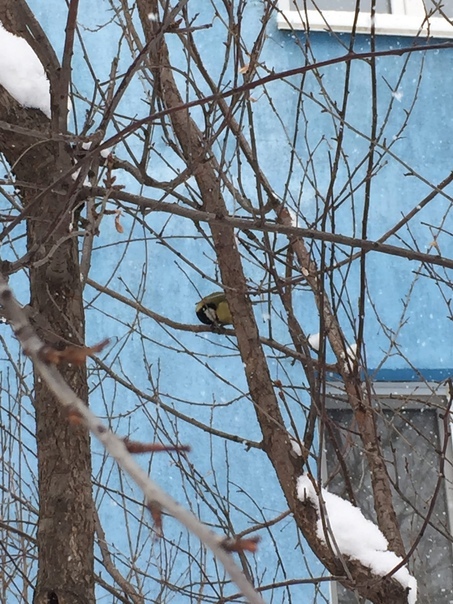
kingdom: Animalia
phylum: Chordata
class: Aves
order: Passeriformes
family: Paridae
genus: Parus
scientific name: Parus major
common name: Great tit
